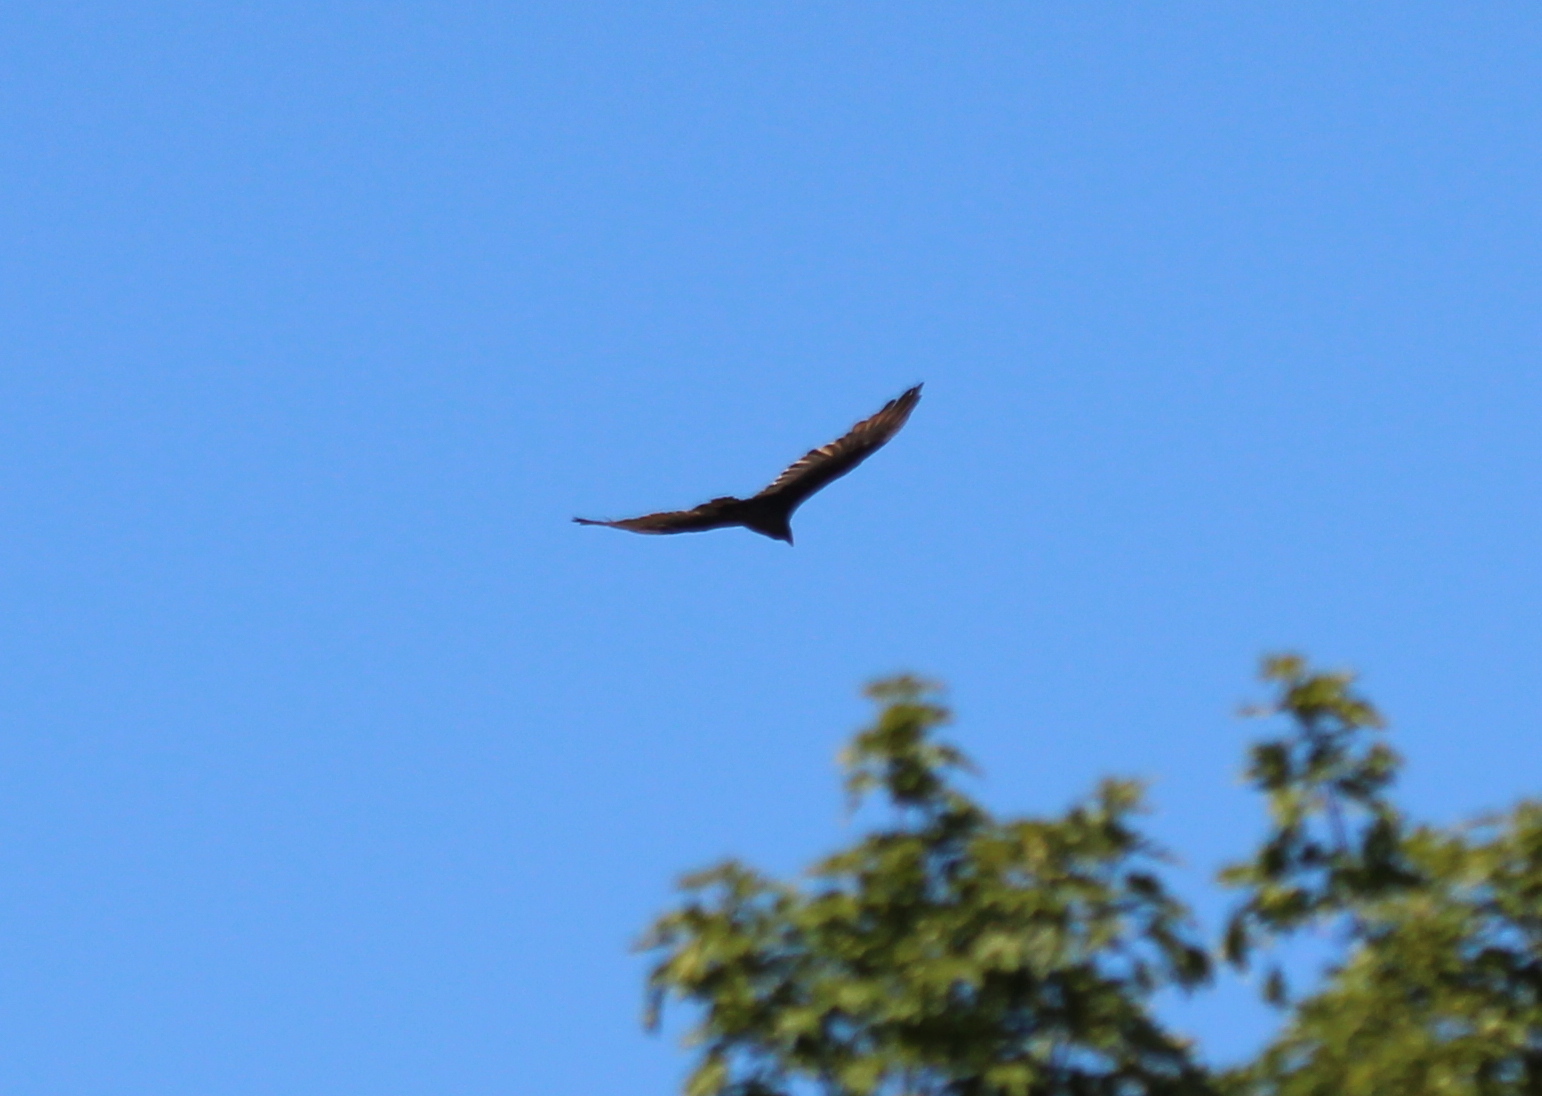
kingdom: Animalia
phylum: Chordata
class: Aves
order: Accipitriformes
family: Cathartidae
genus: Cathartes
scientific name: Cathartes aura
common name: Turkey vulture
